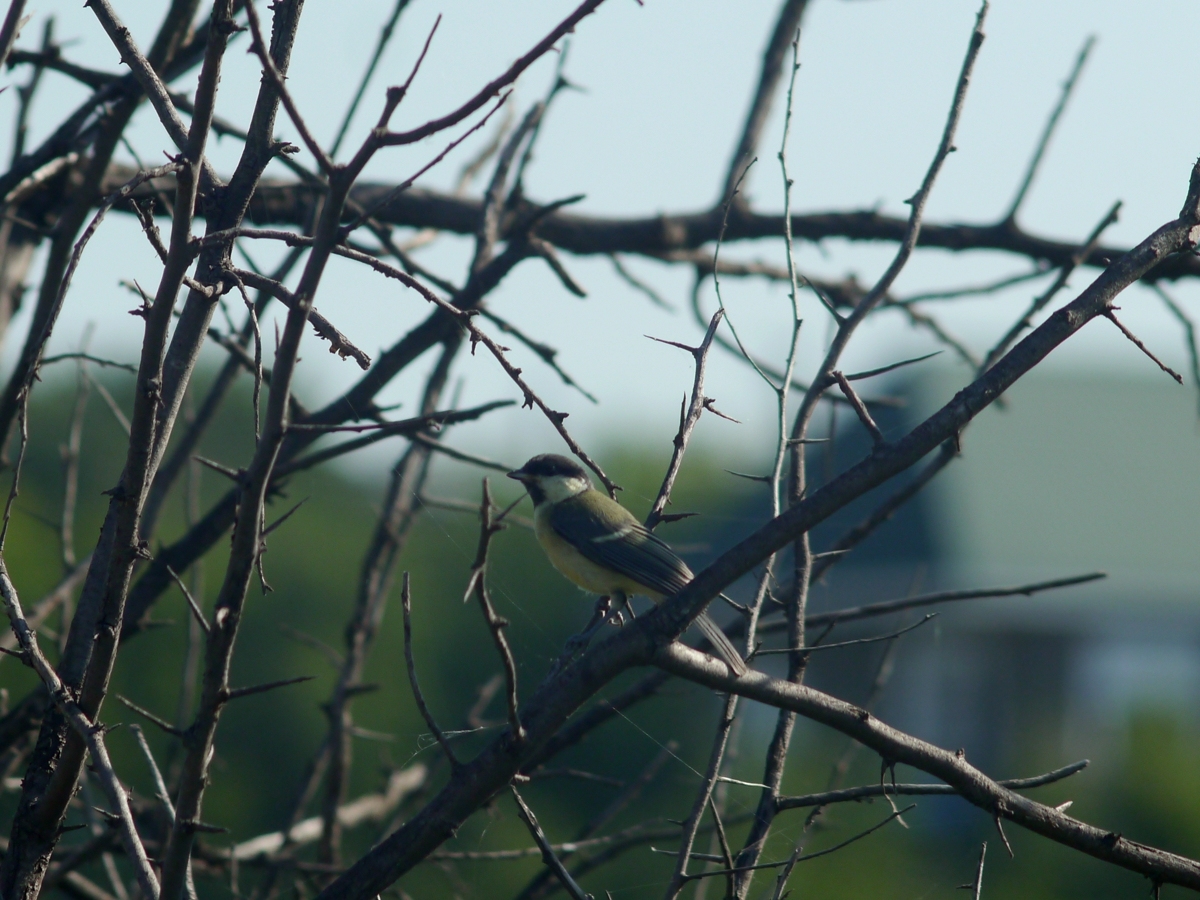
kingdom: Animalia
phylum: Chordata
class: Aves
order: Passeriformes
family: Paridae
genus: Parus
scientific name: Parus major
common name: Great tit
